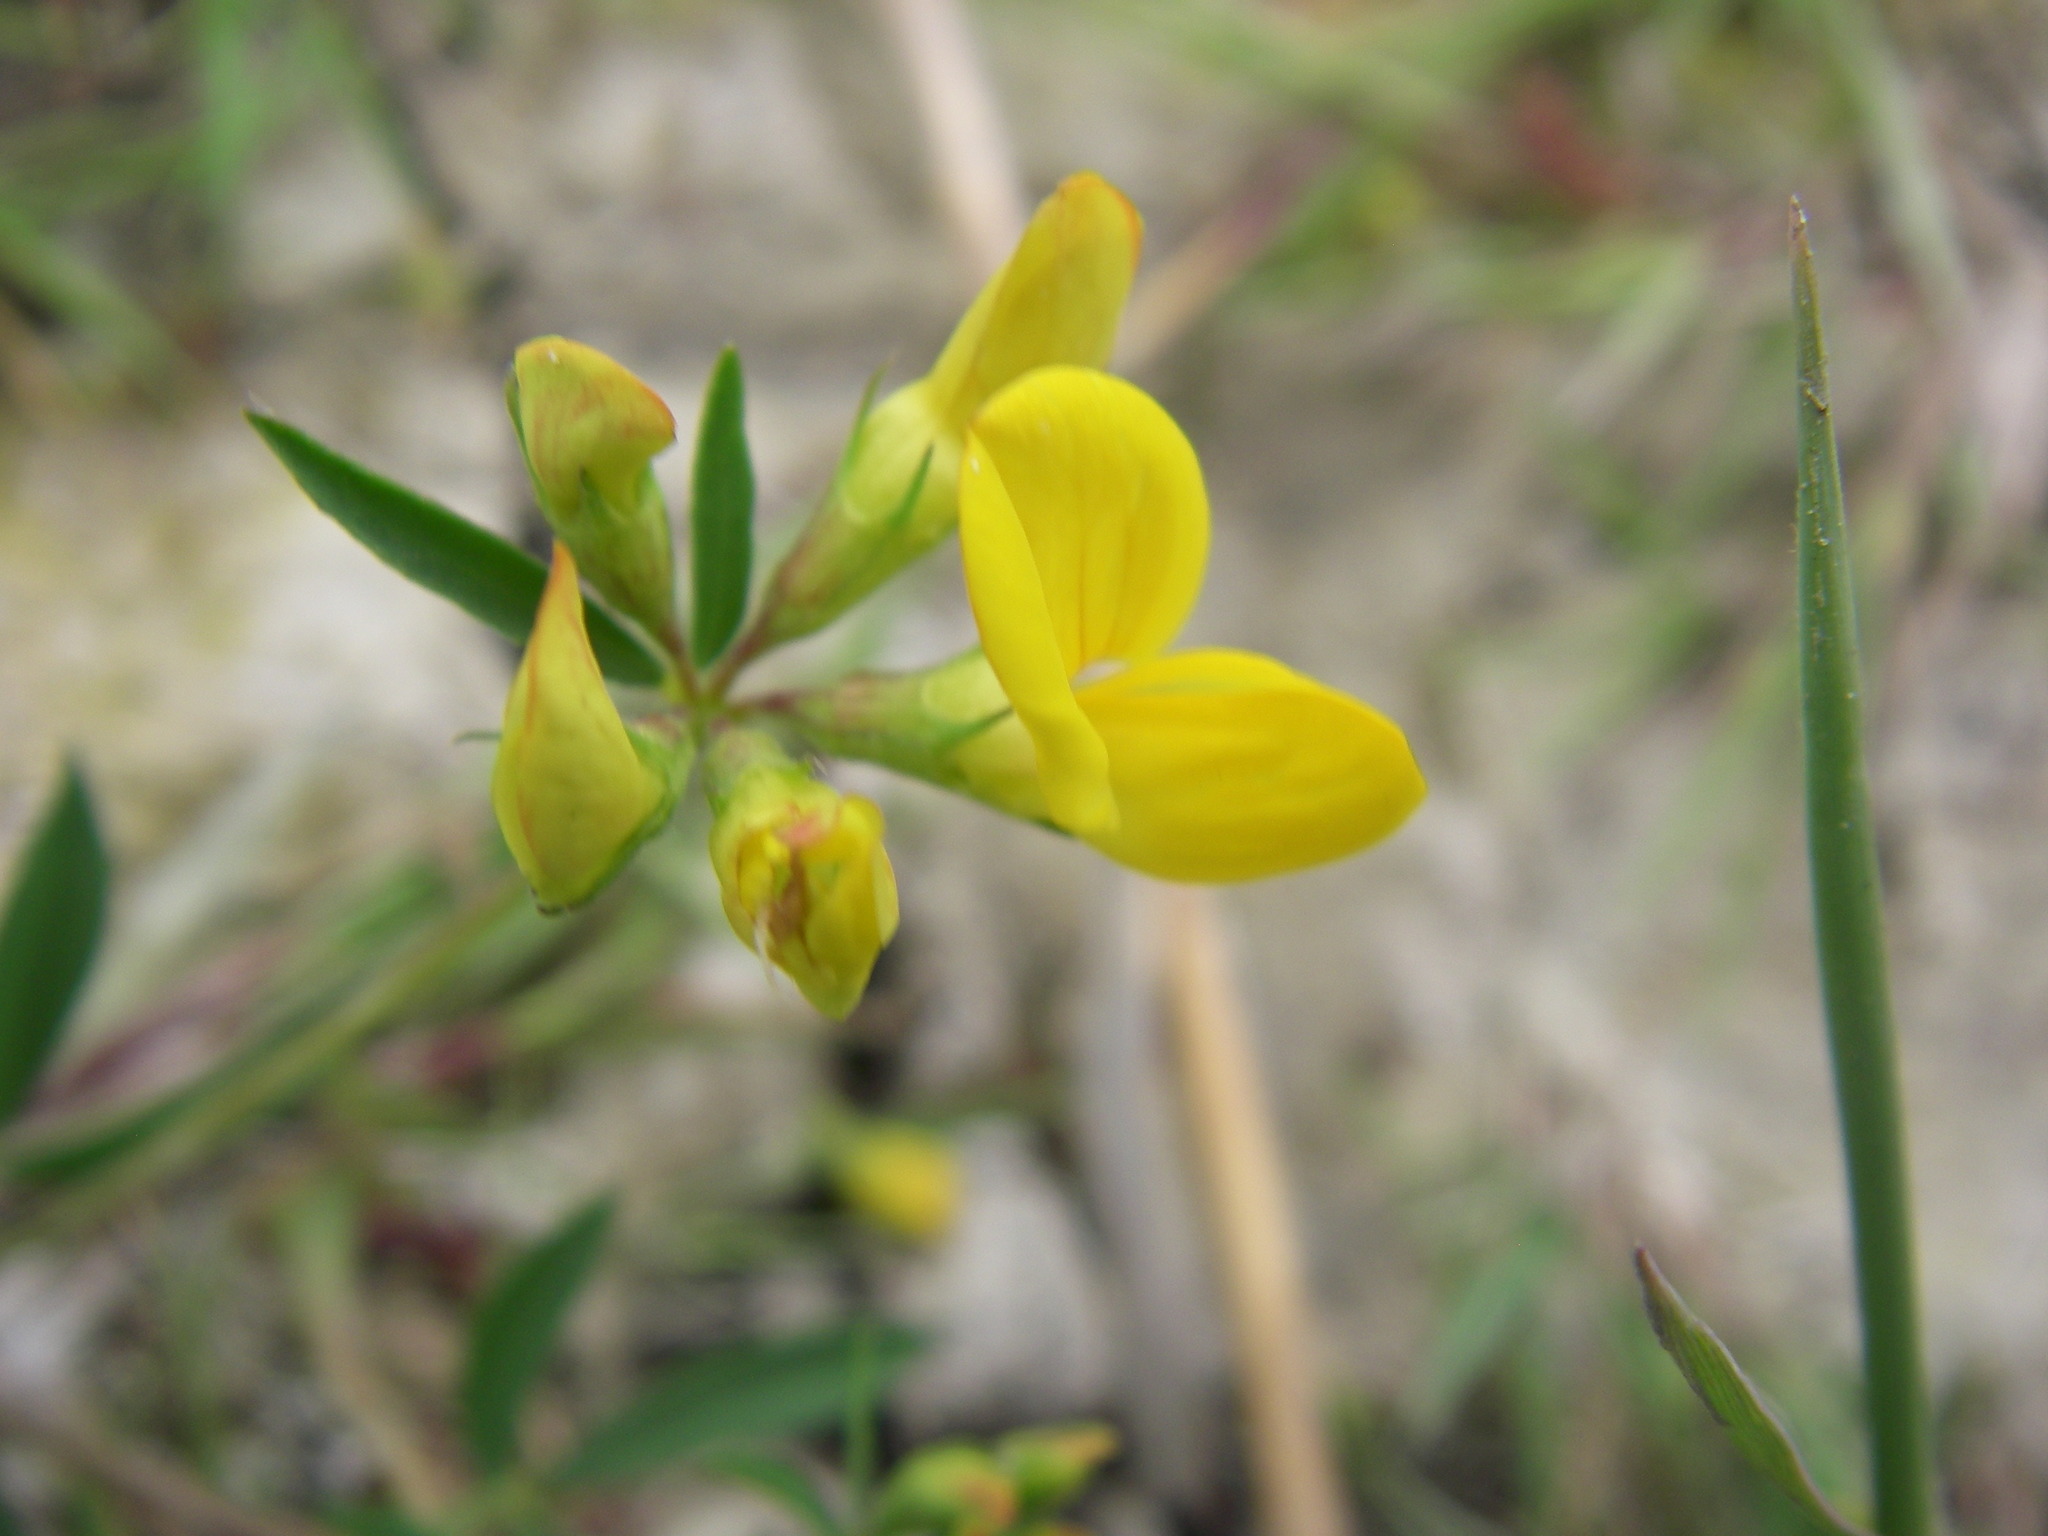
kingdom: Plantae
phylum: Tracheophyta
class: Magnoliopsida
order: Fabales
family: Fabaceae
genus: Lotus
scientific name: Lotus tenuis
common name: Narrow-leaved bird's-foot-trefoil
